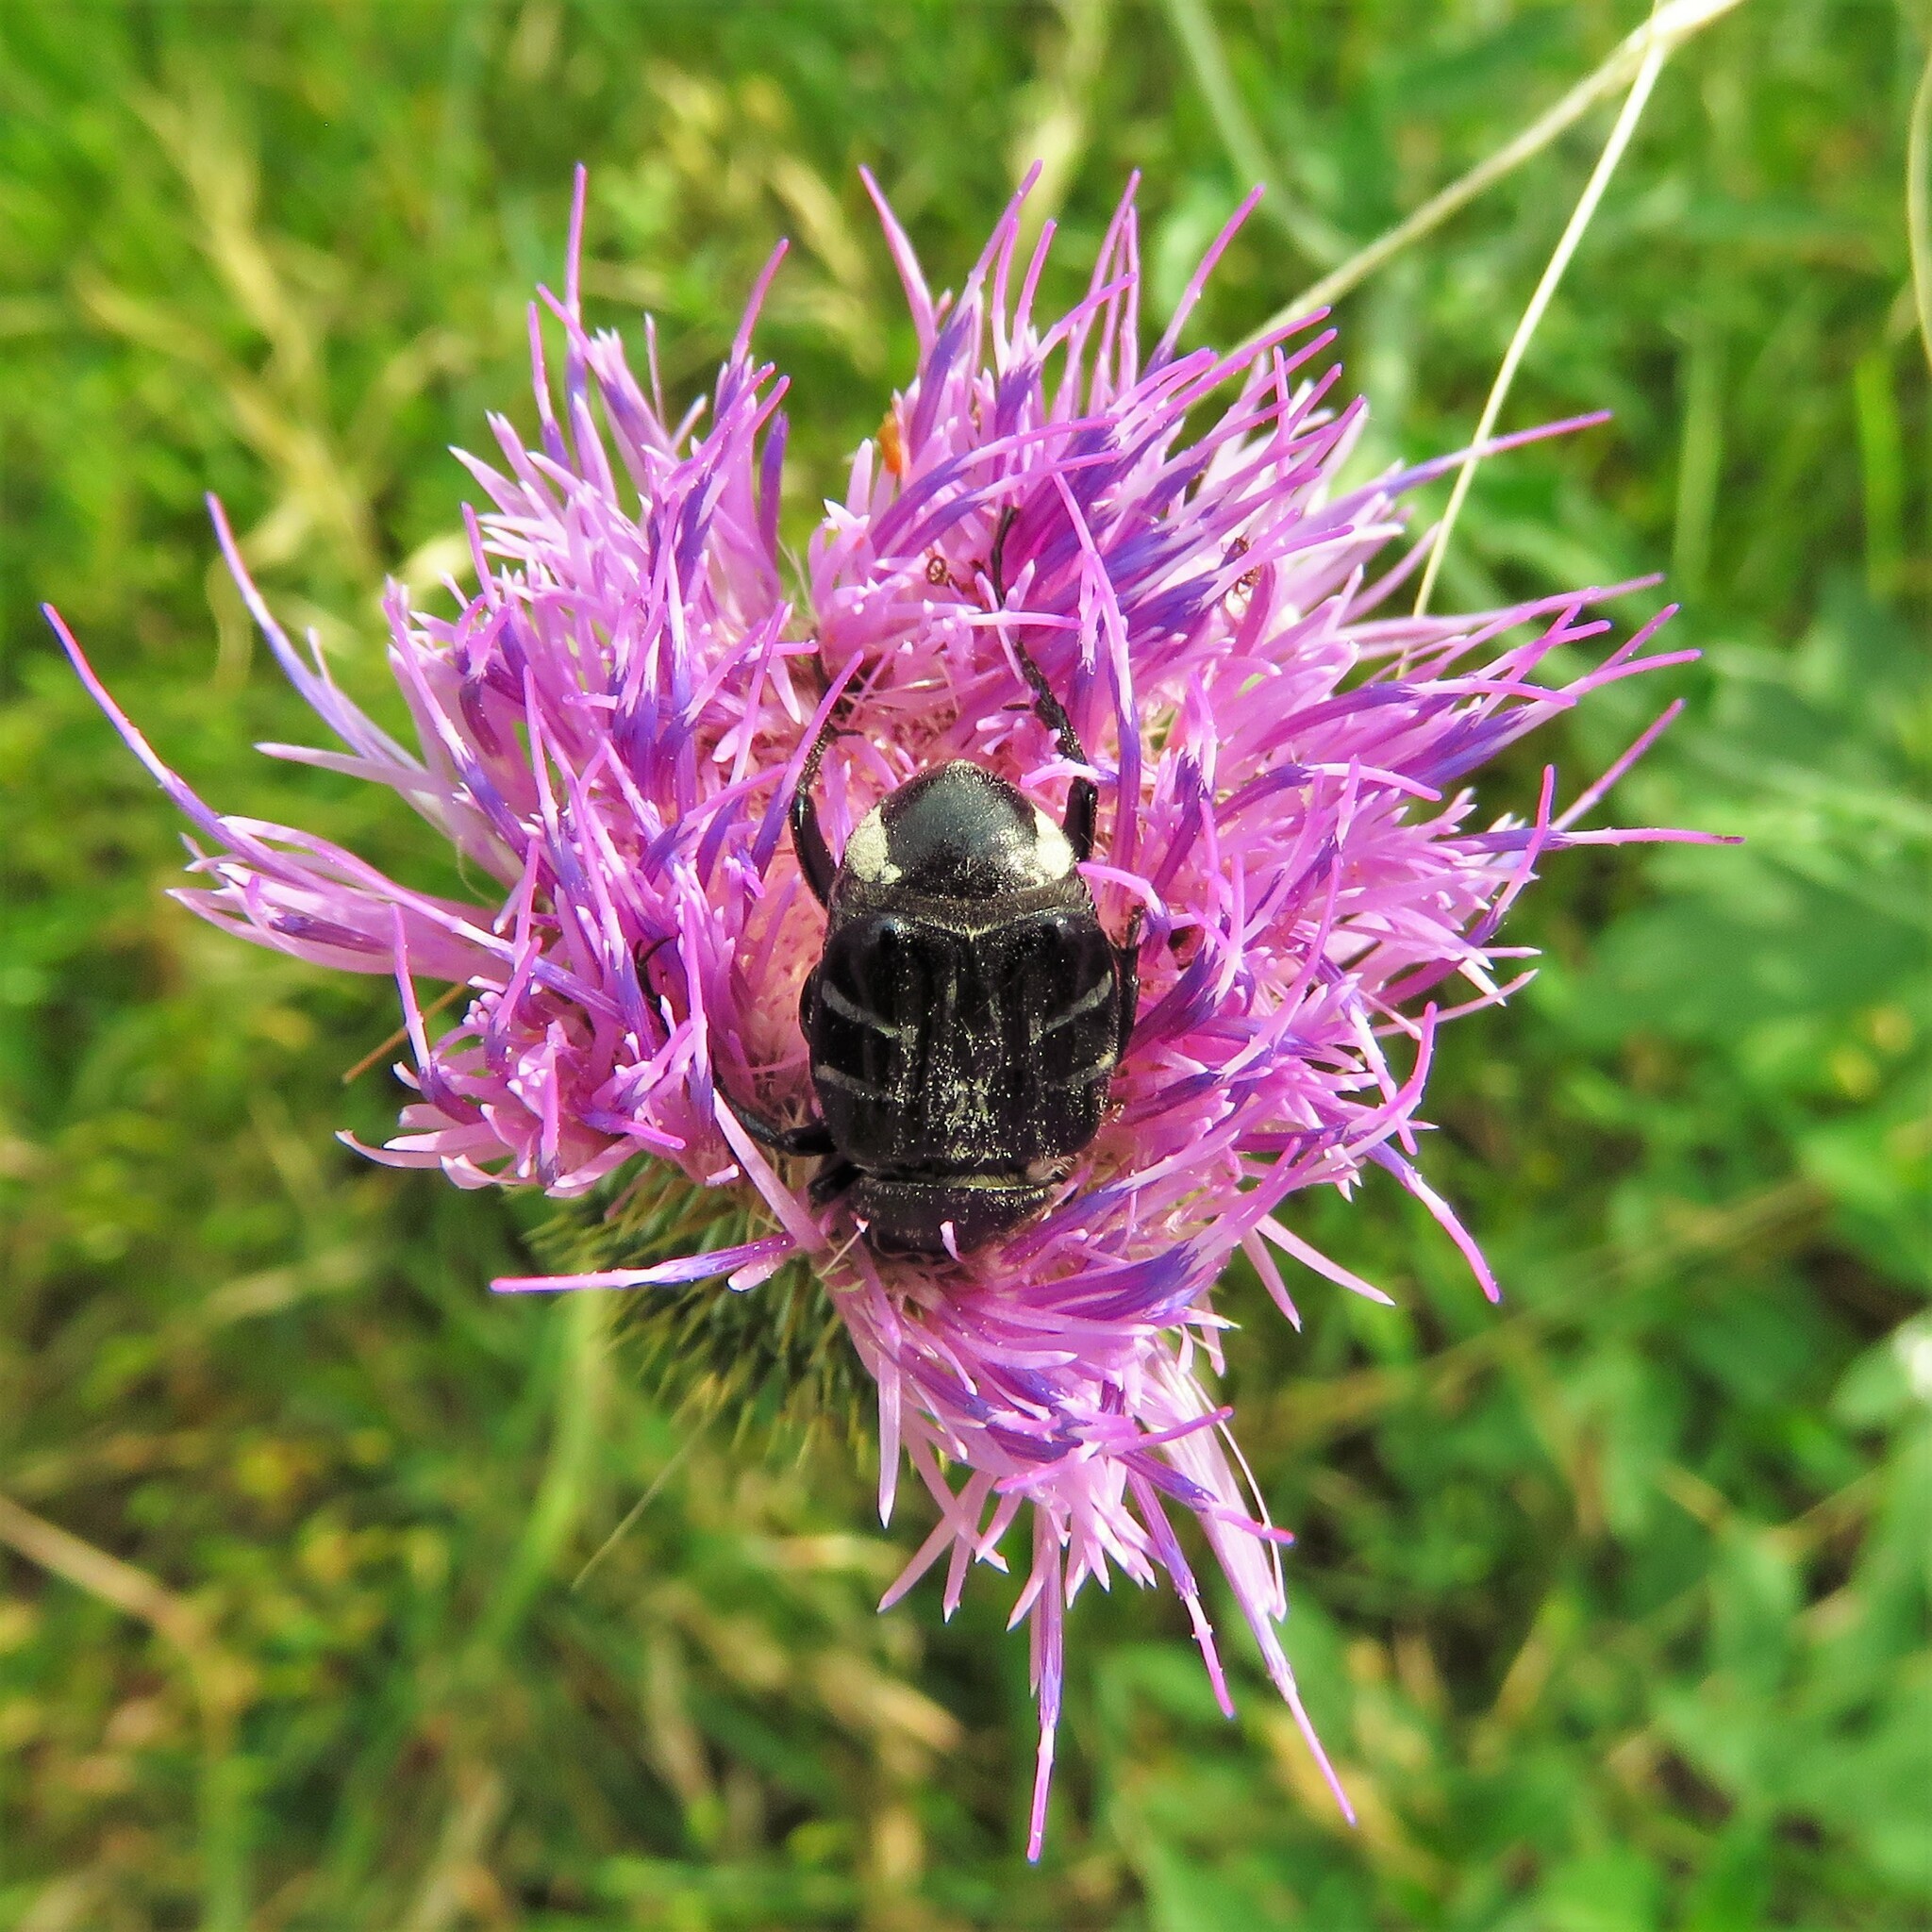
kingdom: Animalia
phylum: Arthropoda
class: Insecta
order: Coleoptera
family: Scarabaeidae
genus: Trichiotinus
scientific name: Trichiotinus texanus
